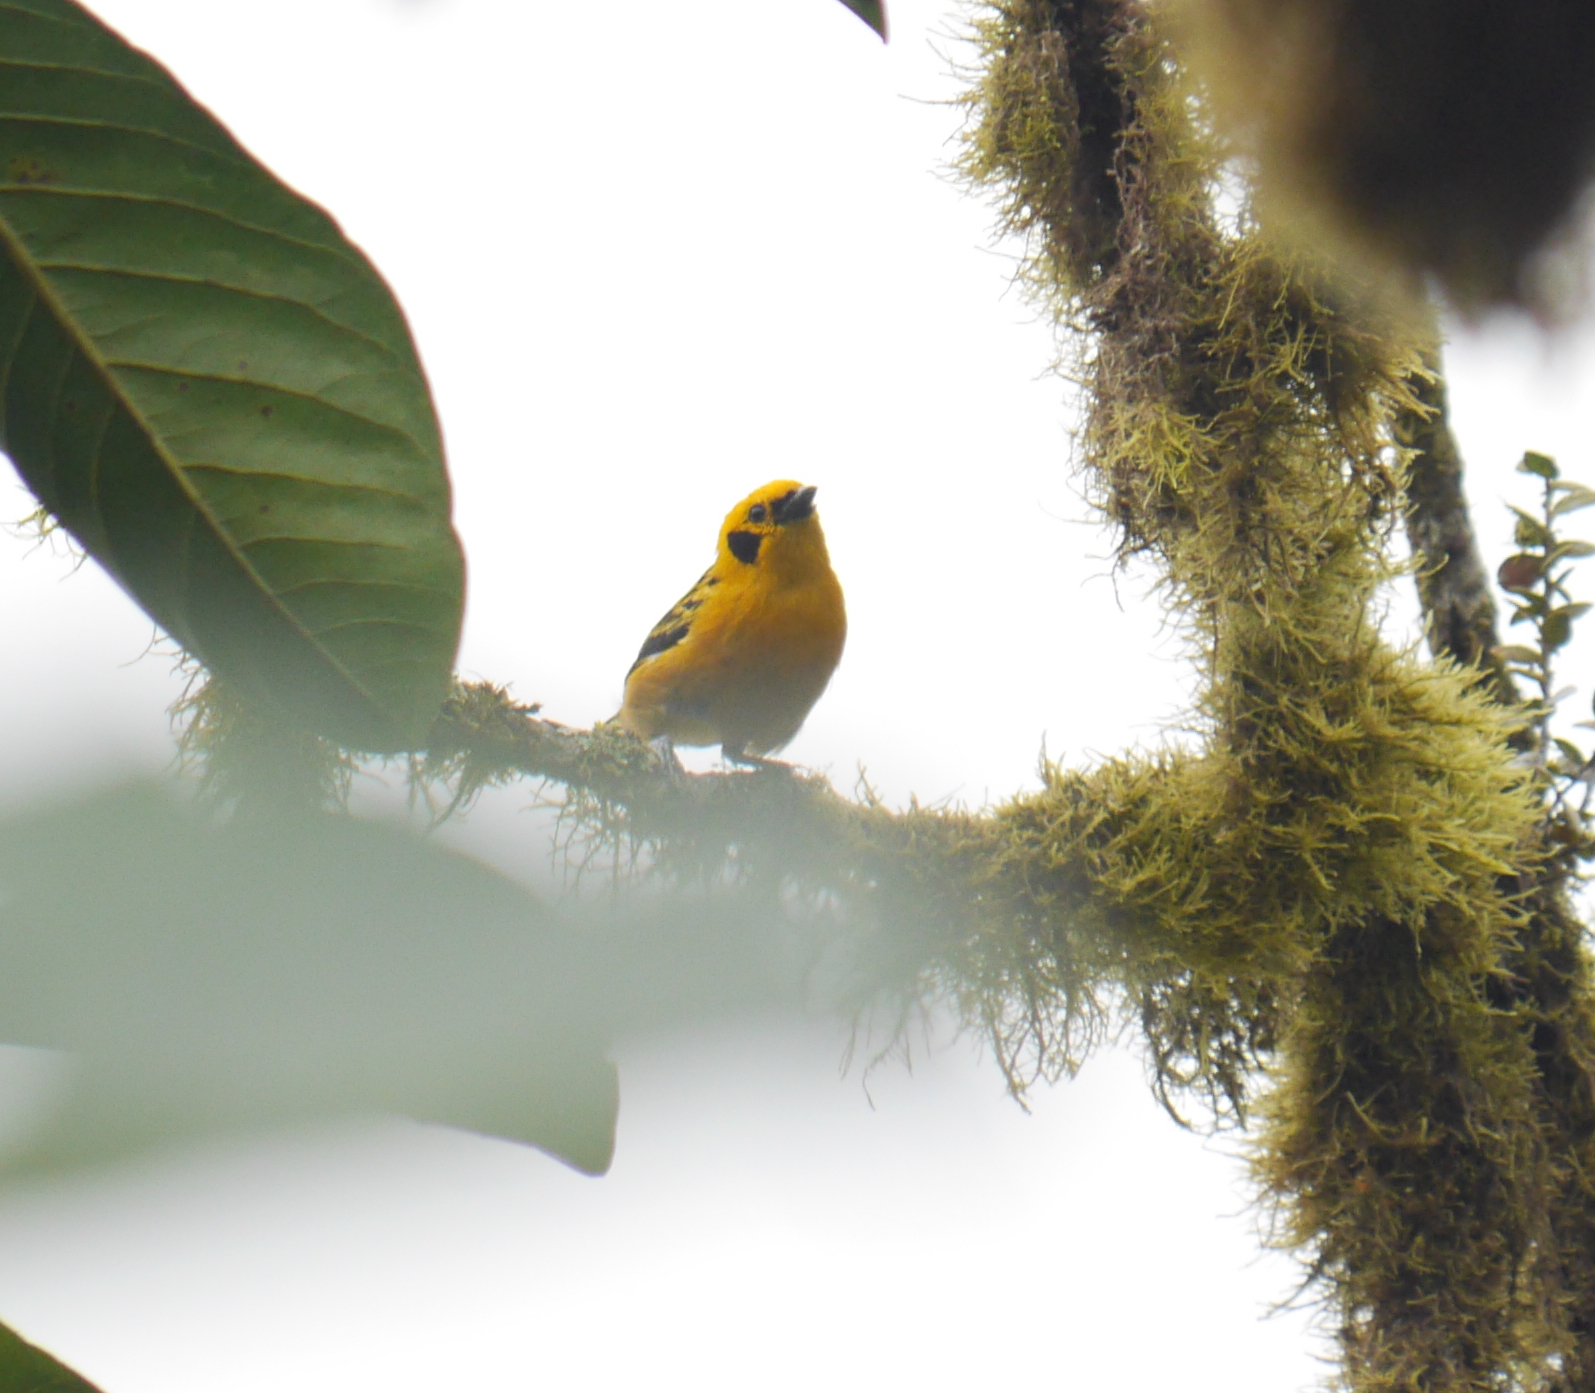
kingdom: Animalia
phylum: Chordata
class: Aves
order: Passeriformes
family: Thraupidae
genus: Tangara
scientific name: Tangara arthus
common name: Golden tanager
